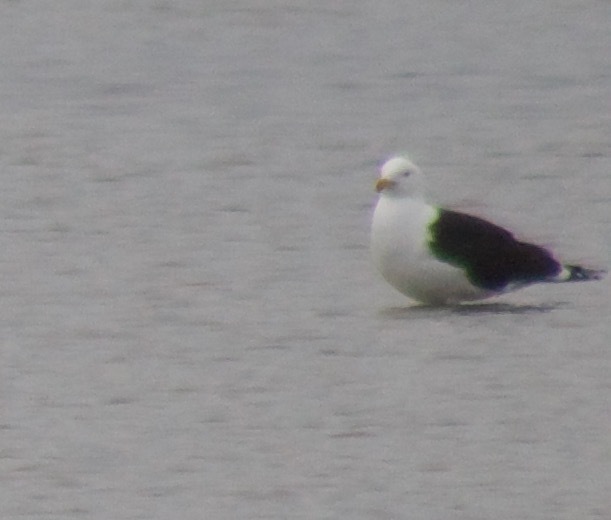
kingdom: Animalia
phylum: Chordata
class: Aves
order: Charadriiformes
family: Laridae
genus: Larus
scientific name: Larus marinus
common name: Great black-backed gull
